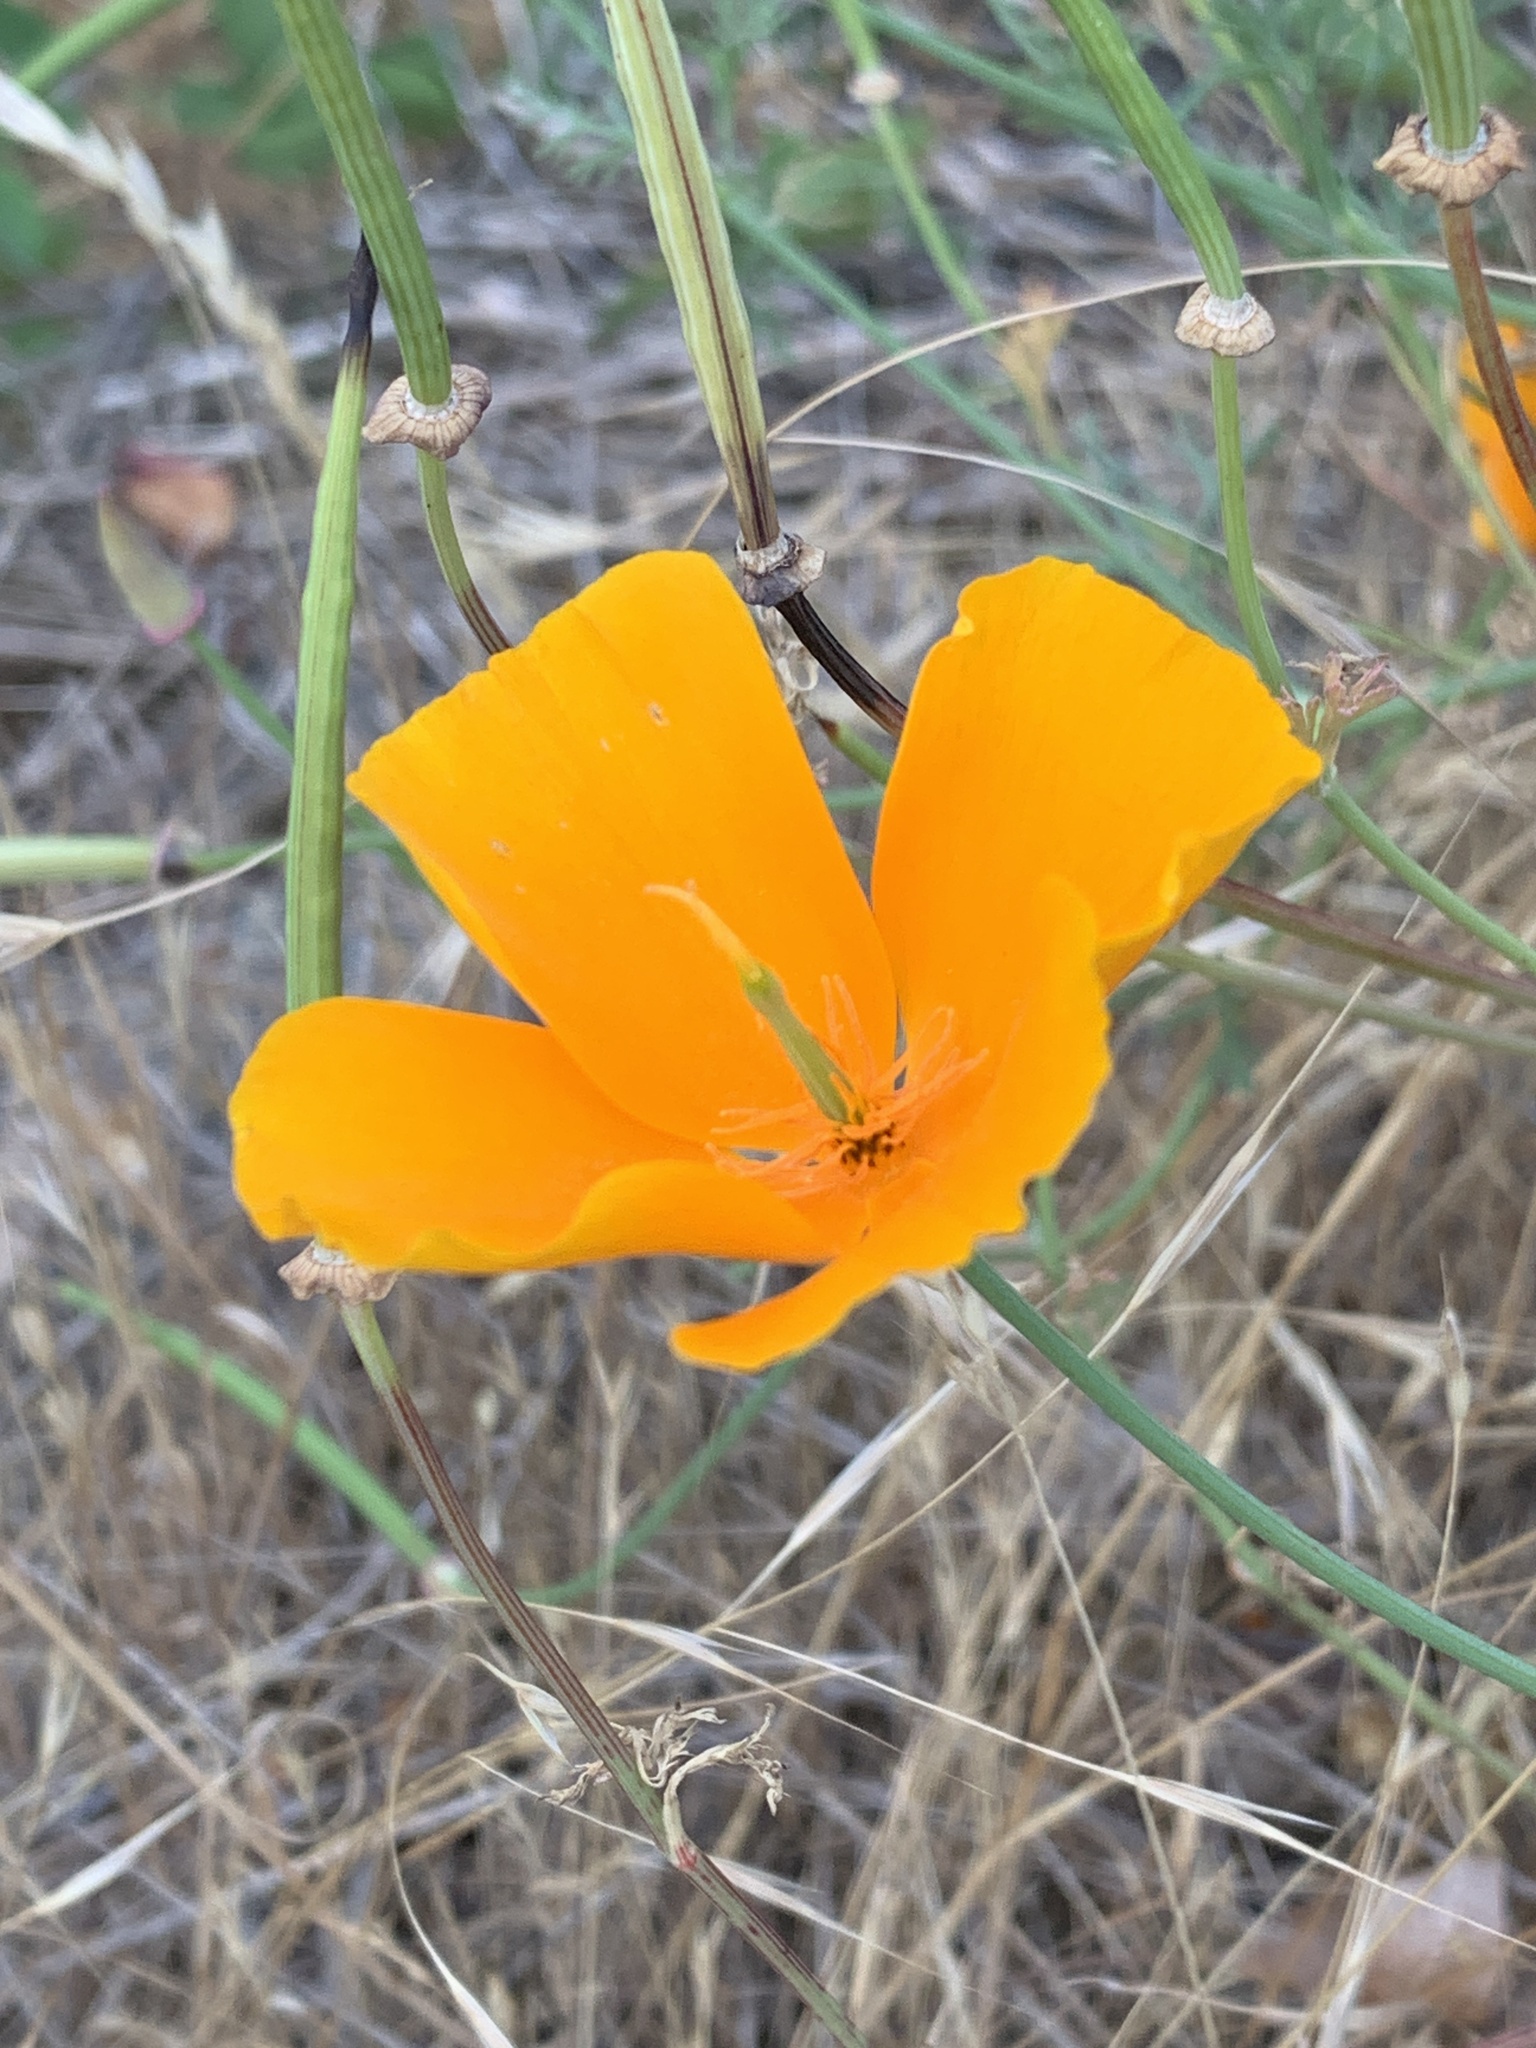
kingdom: Plantae
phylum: Tracheophyta
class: Magnoliopsida
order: Ranunculales
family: Papaveraceae
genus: Eschscholzia
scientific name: Eschscholzia californica
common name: California poppy
